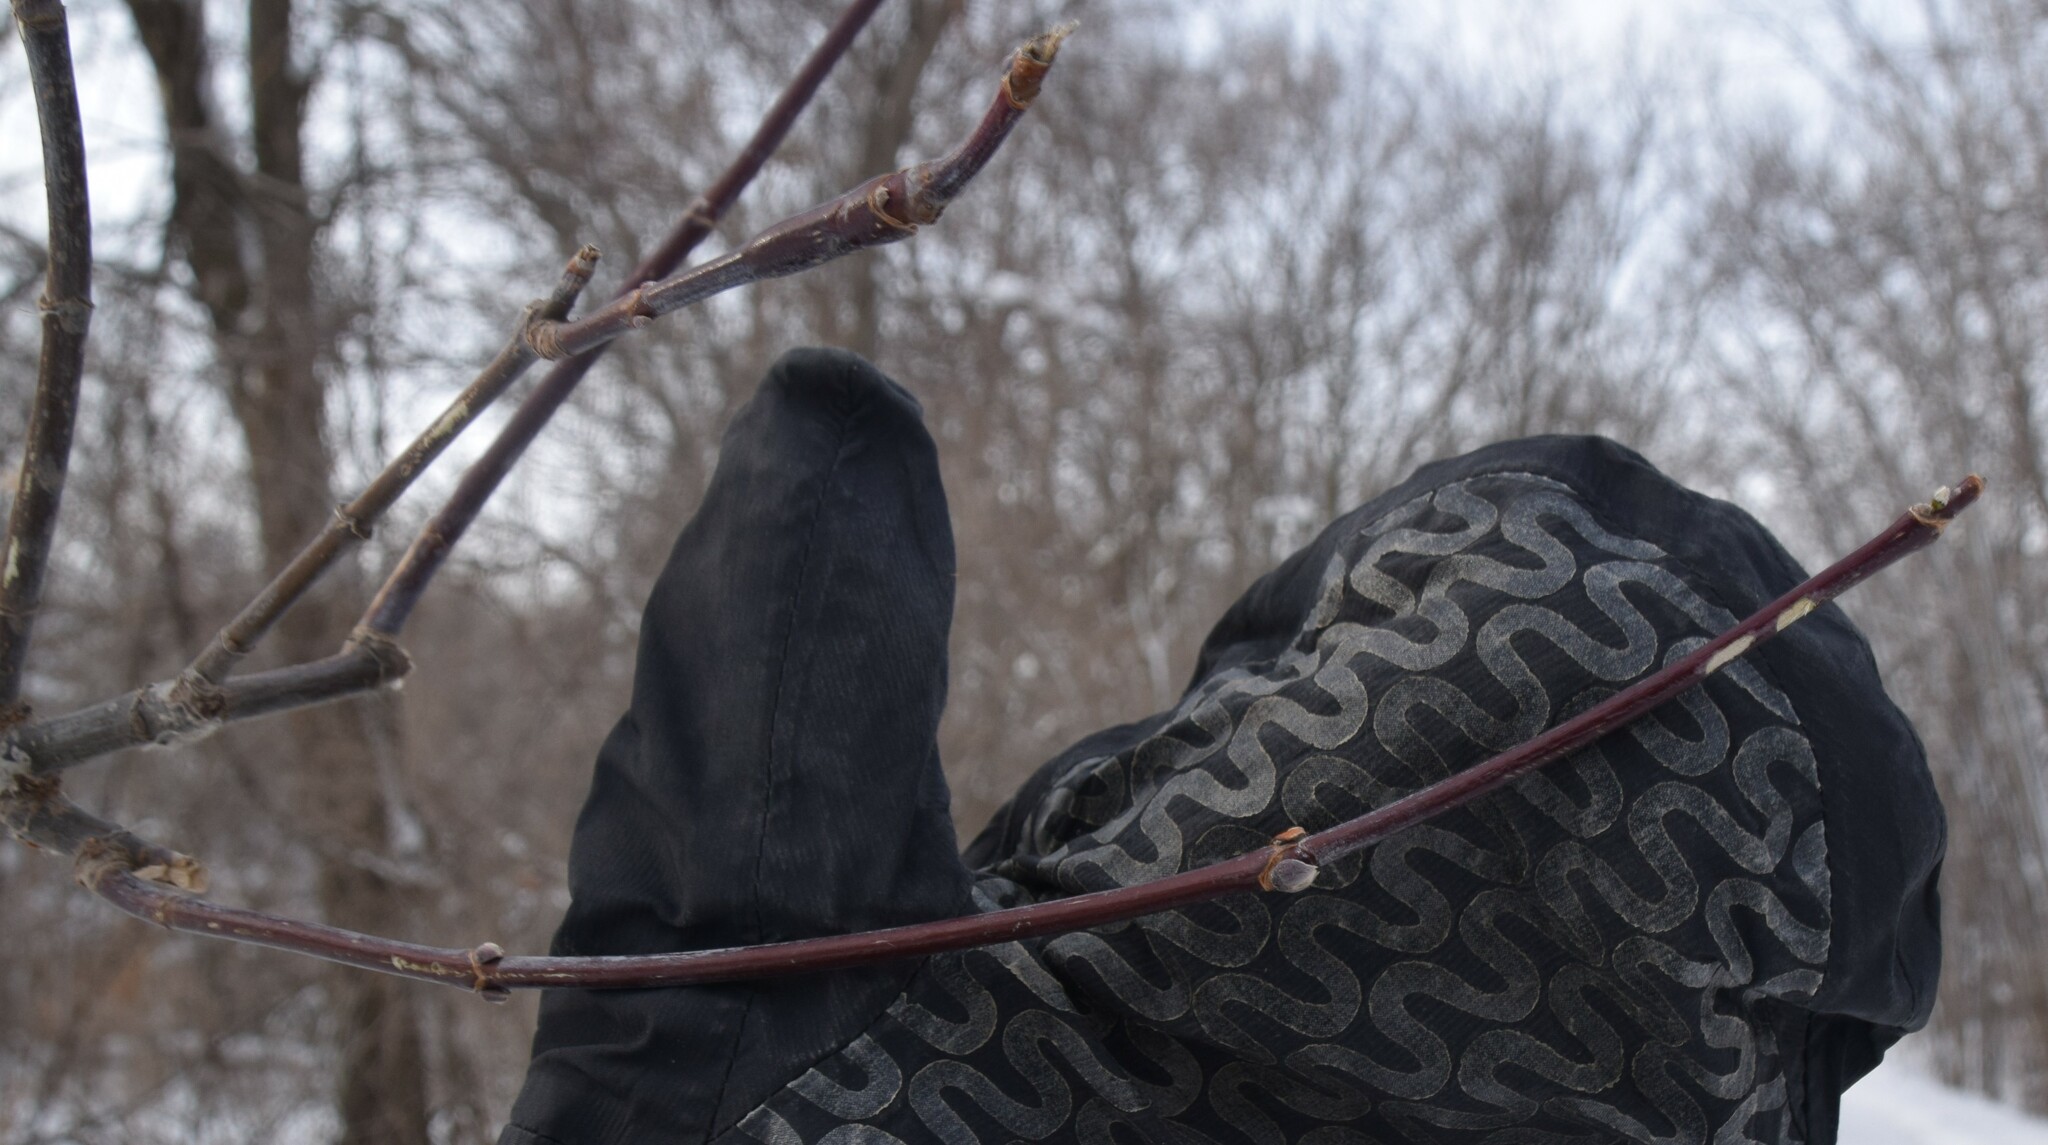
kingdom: Plantae
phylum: Tracheophyta
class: Magnoliopsida
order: Sapindales
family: Sapindaceae
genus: Acer
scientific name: Acer negundo
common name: Ashleaf maple
